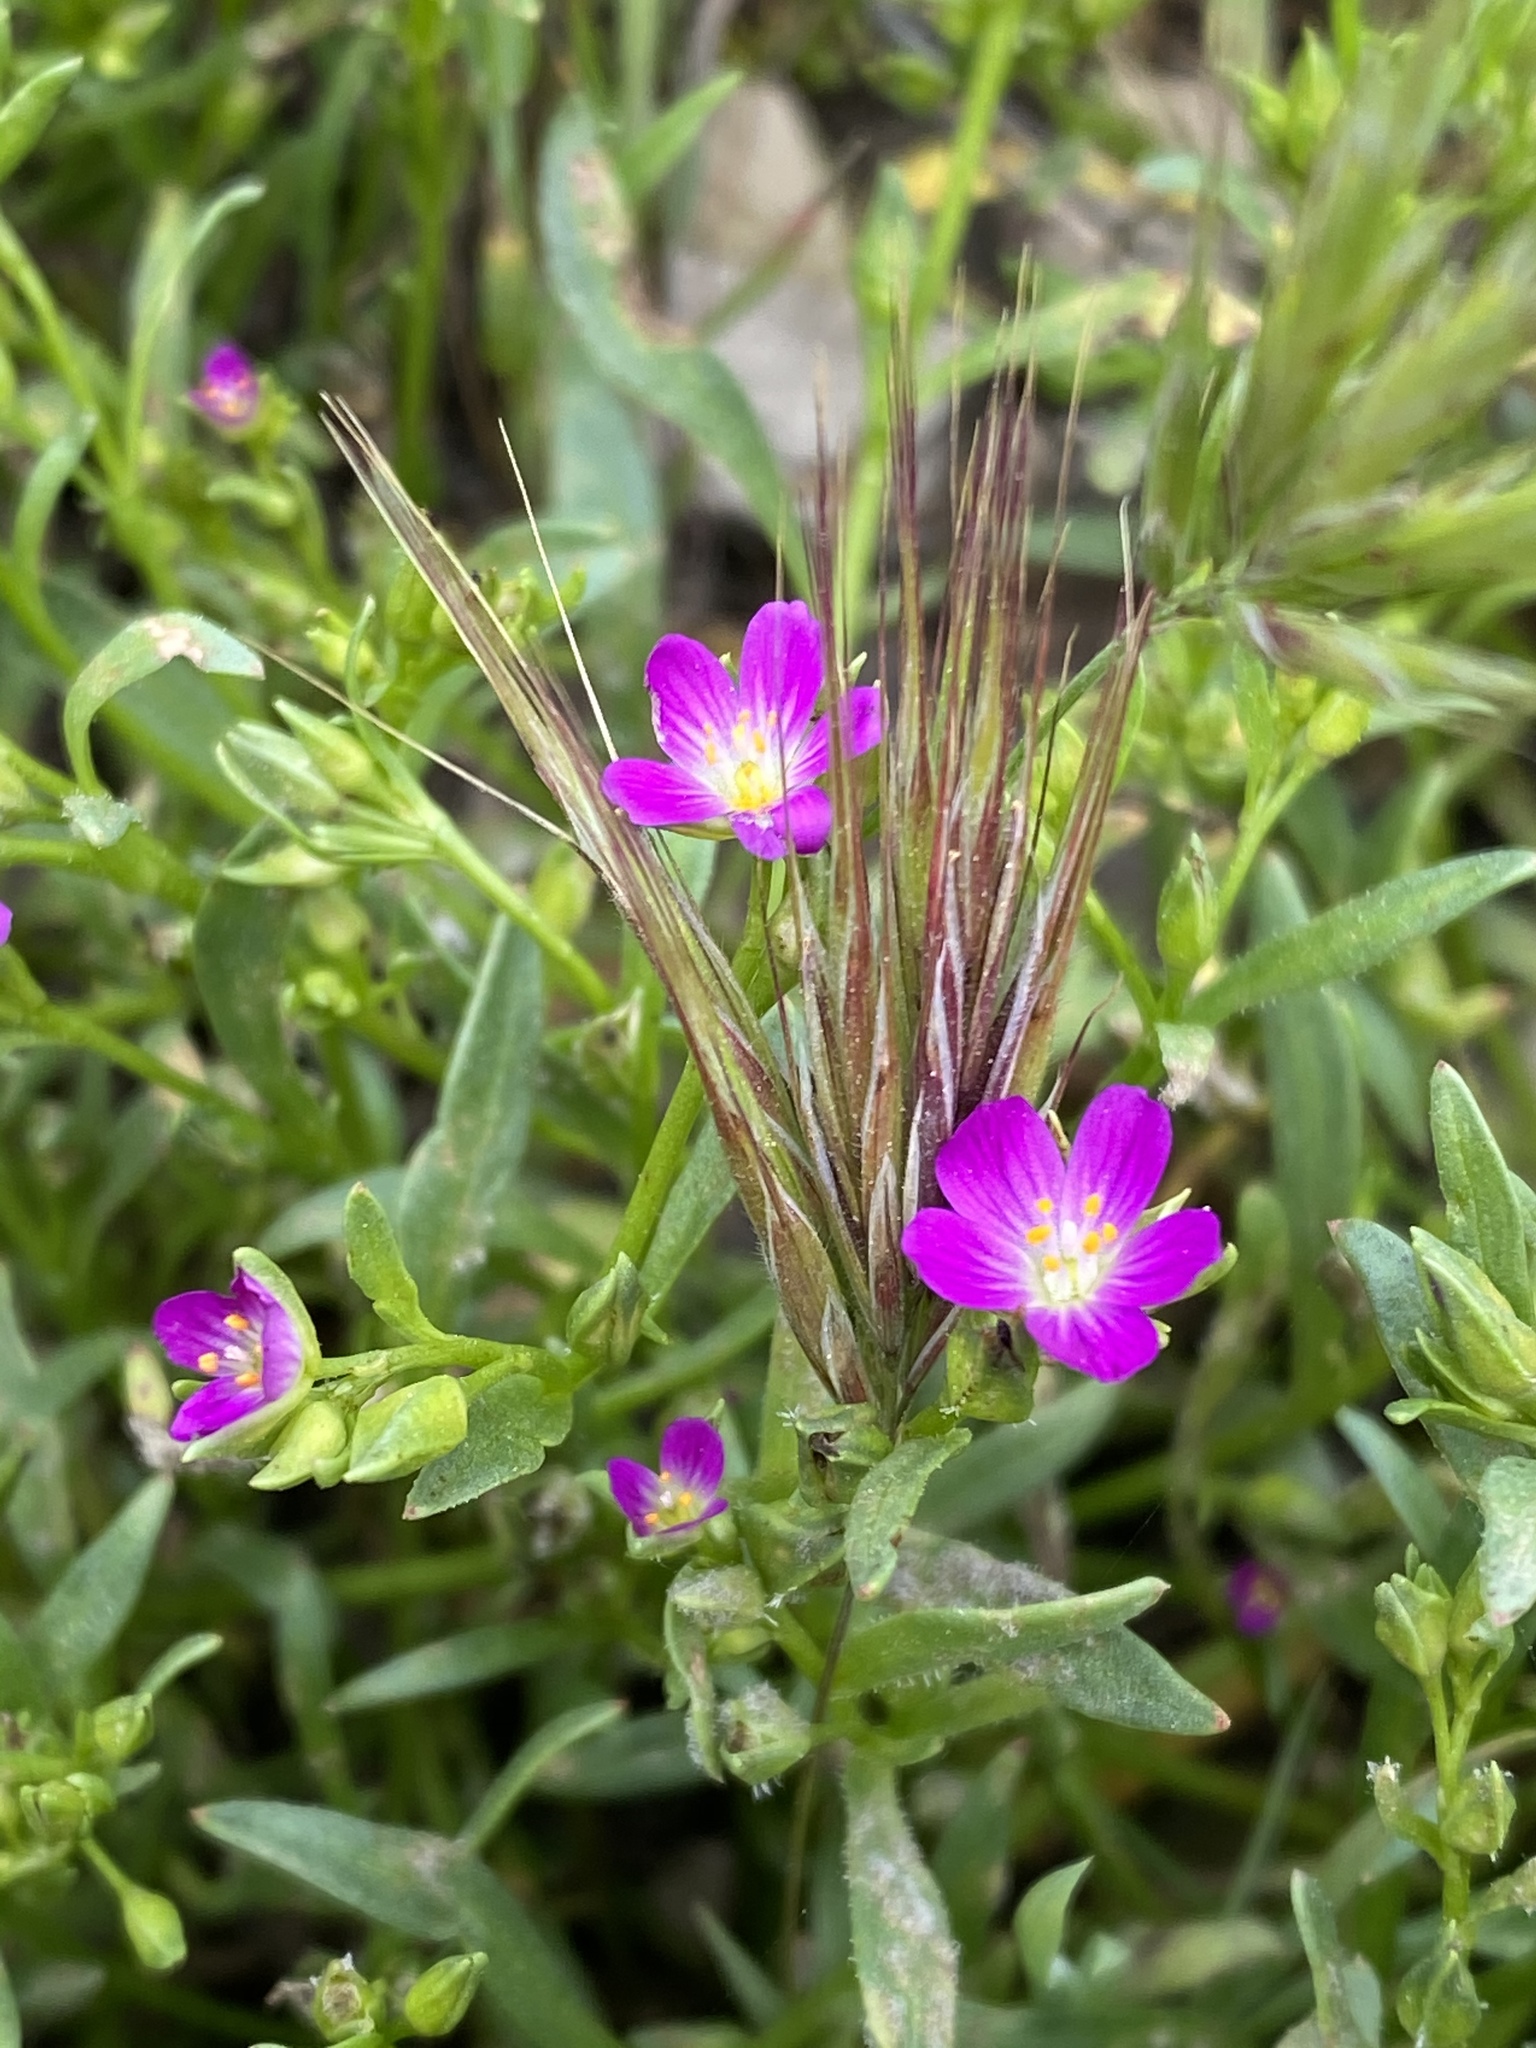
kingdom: Plantae
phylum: Tracheophyta
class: Magnoliopsida
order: Caryophyllales
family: Montiaceae
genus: Calandrinia
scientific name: Calandrinia menziesii
